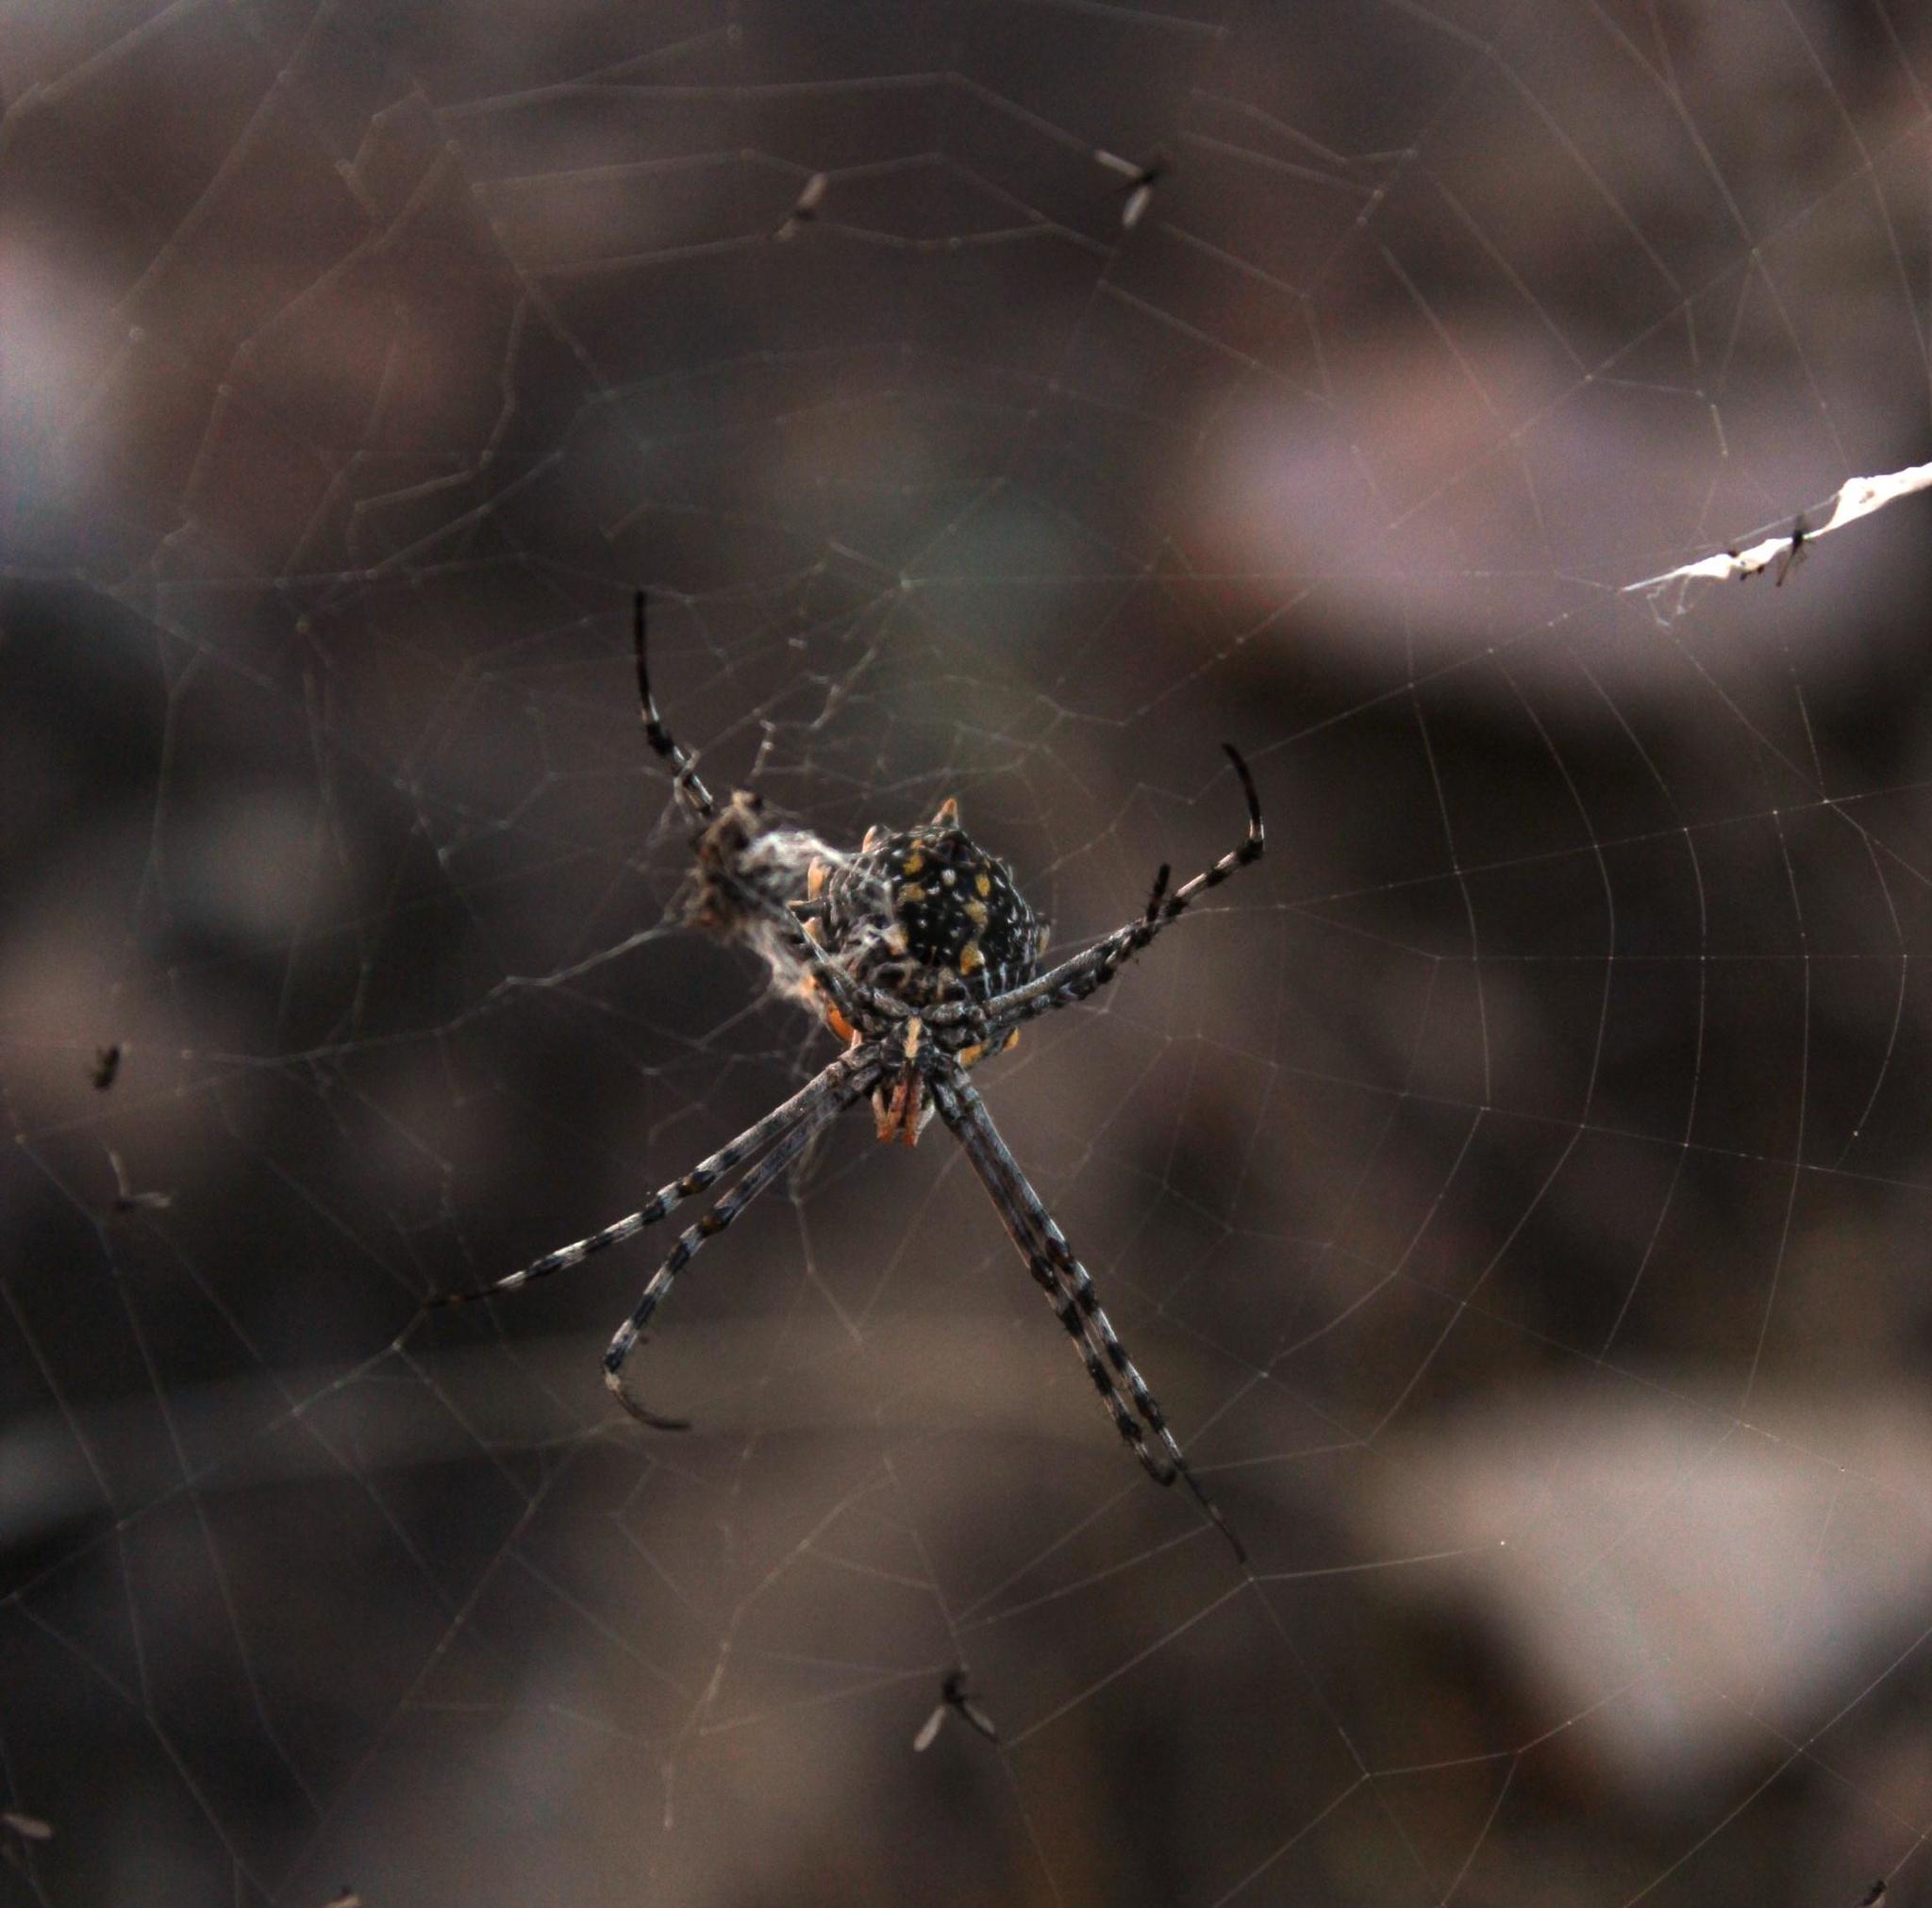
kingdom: Animalia
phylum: Arthropoda
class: Arachnida
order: Araneae
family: Araneidae
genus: Argiope
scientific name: Argiope australis
